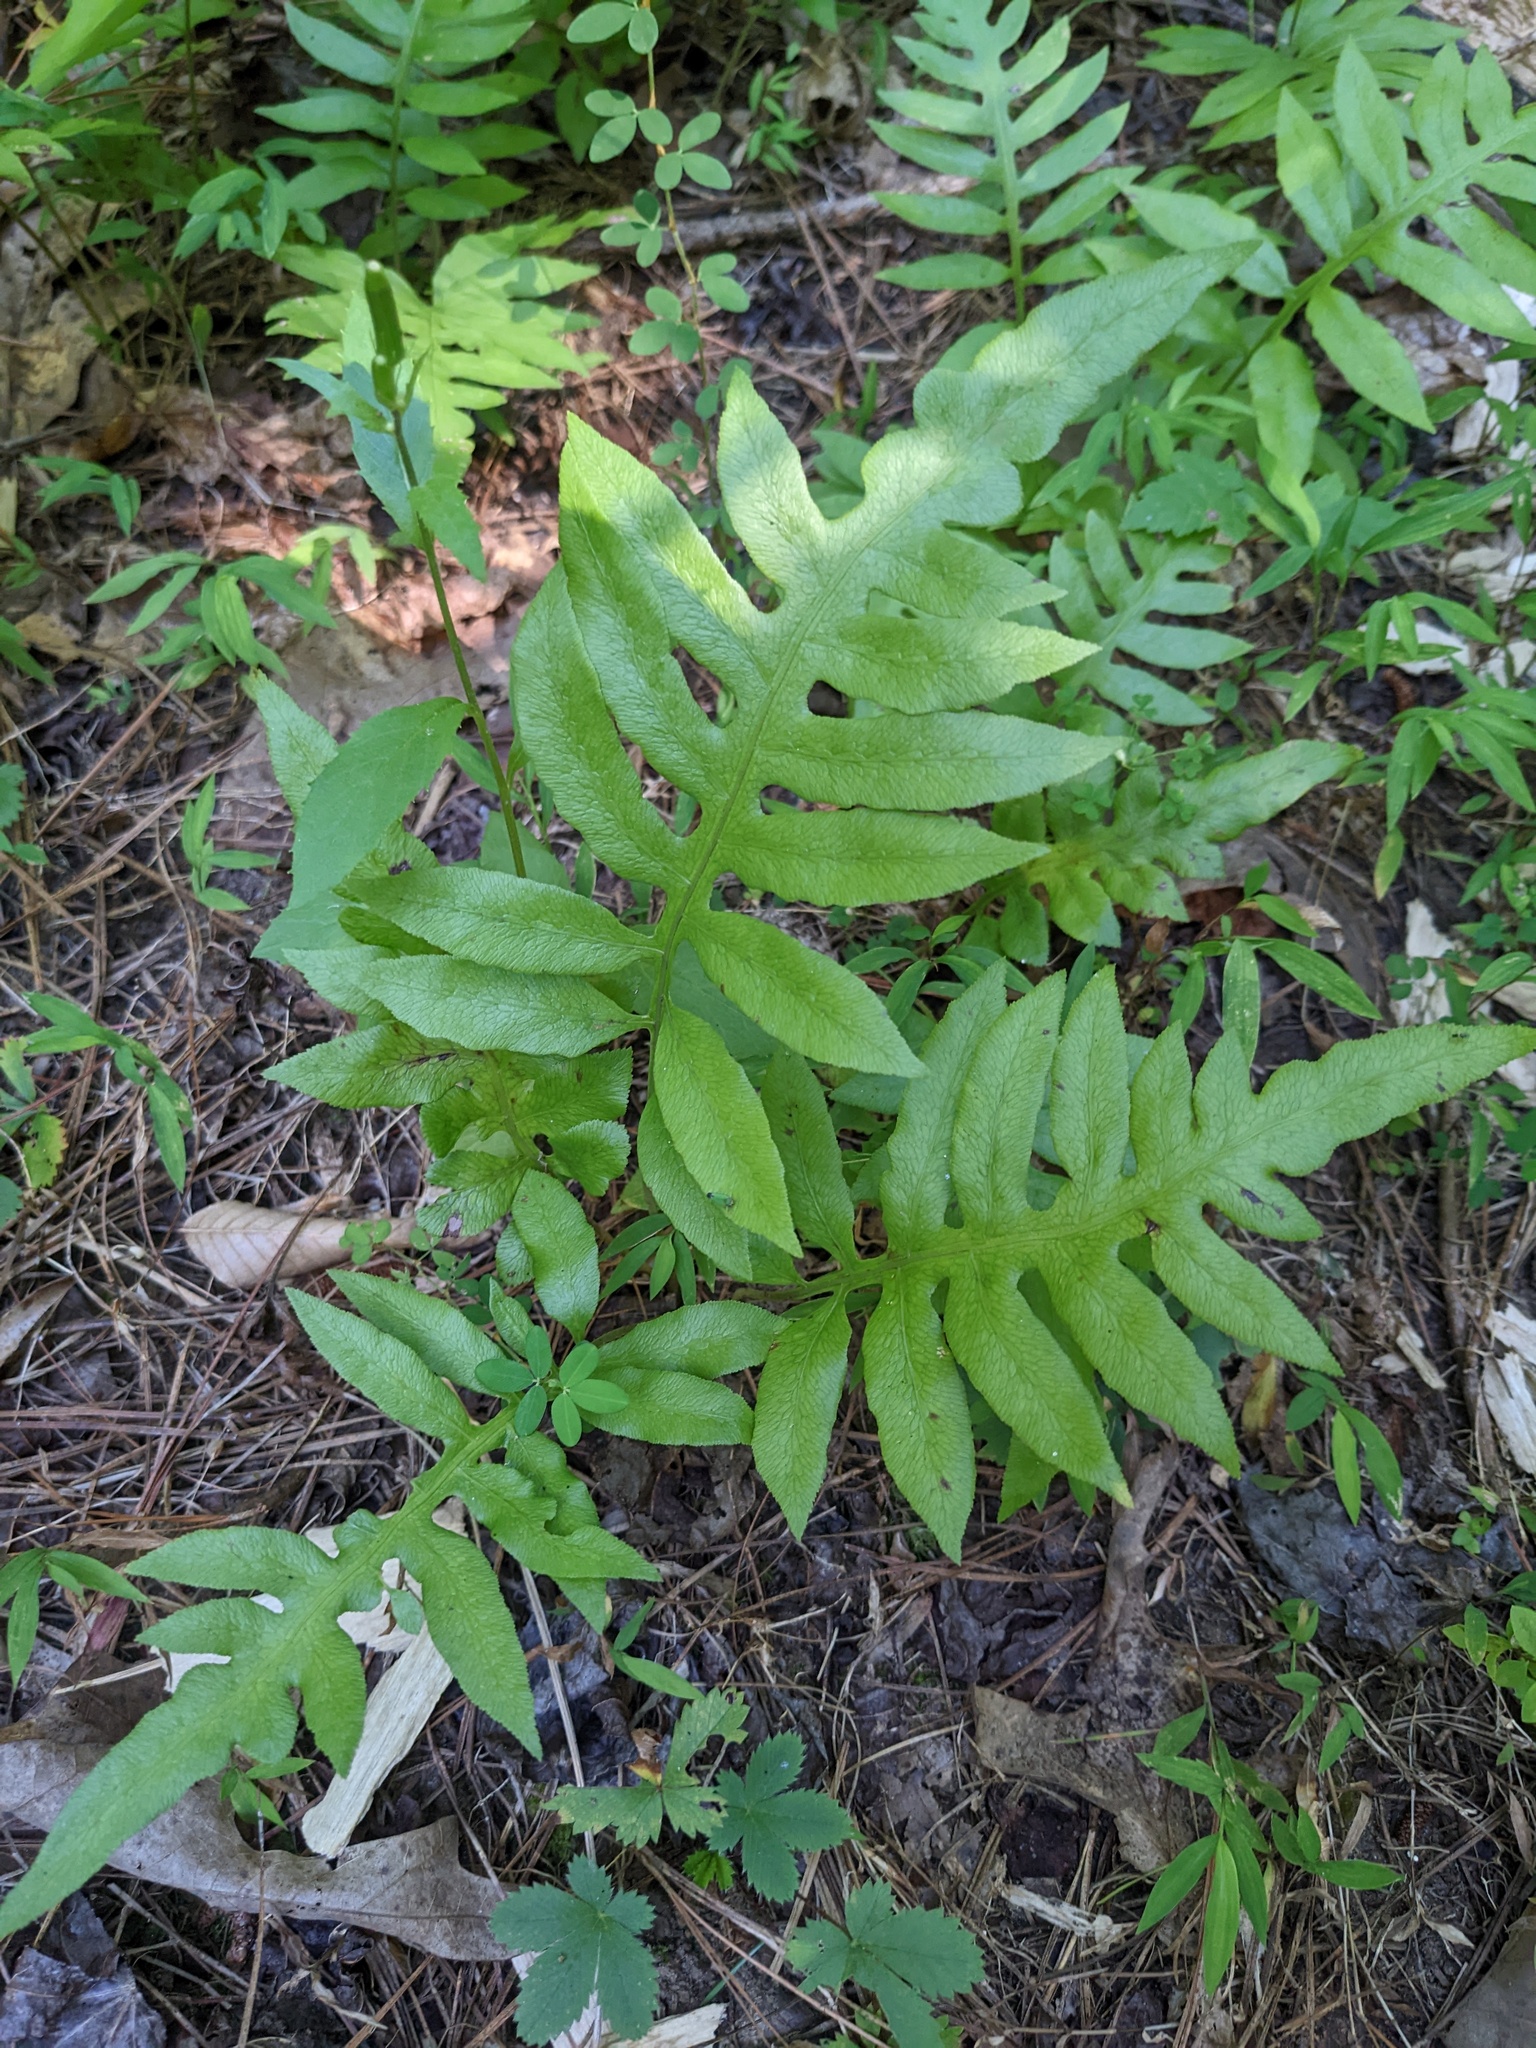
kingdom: Plantae
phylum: Tracheophyta
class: Polypodiopsida
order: Polypodiales
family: Blechnaceae
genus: Lorinseria
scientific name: Lorinseria areolata
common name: Dwarf chain fern
